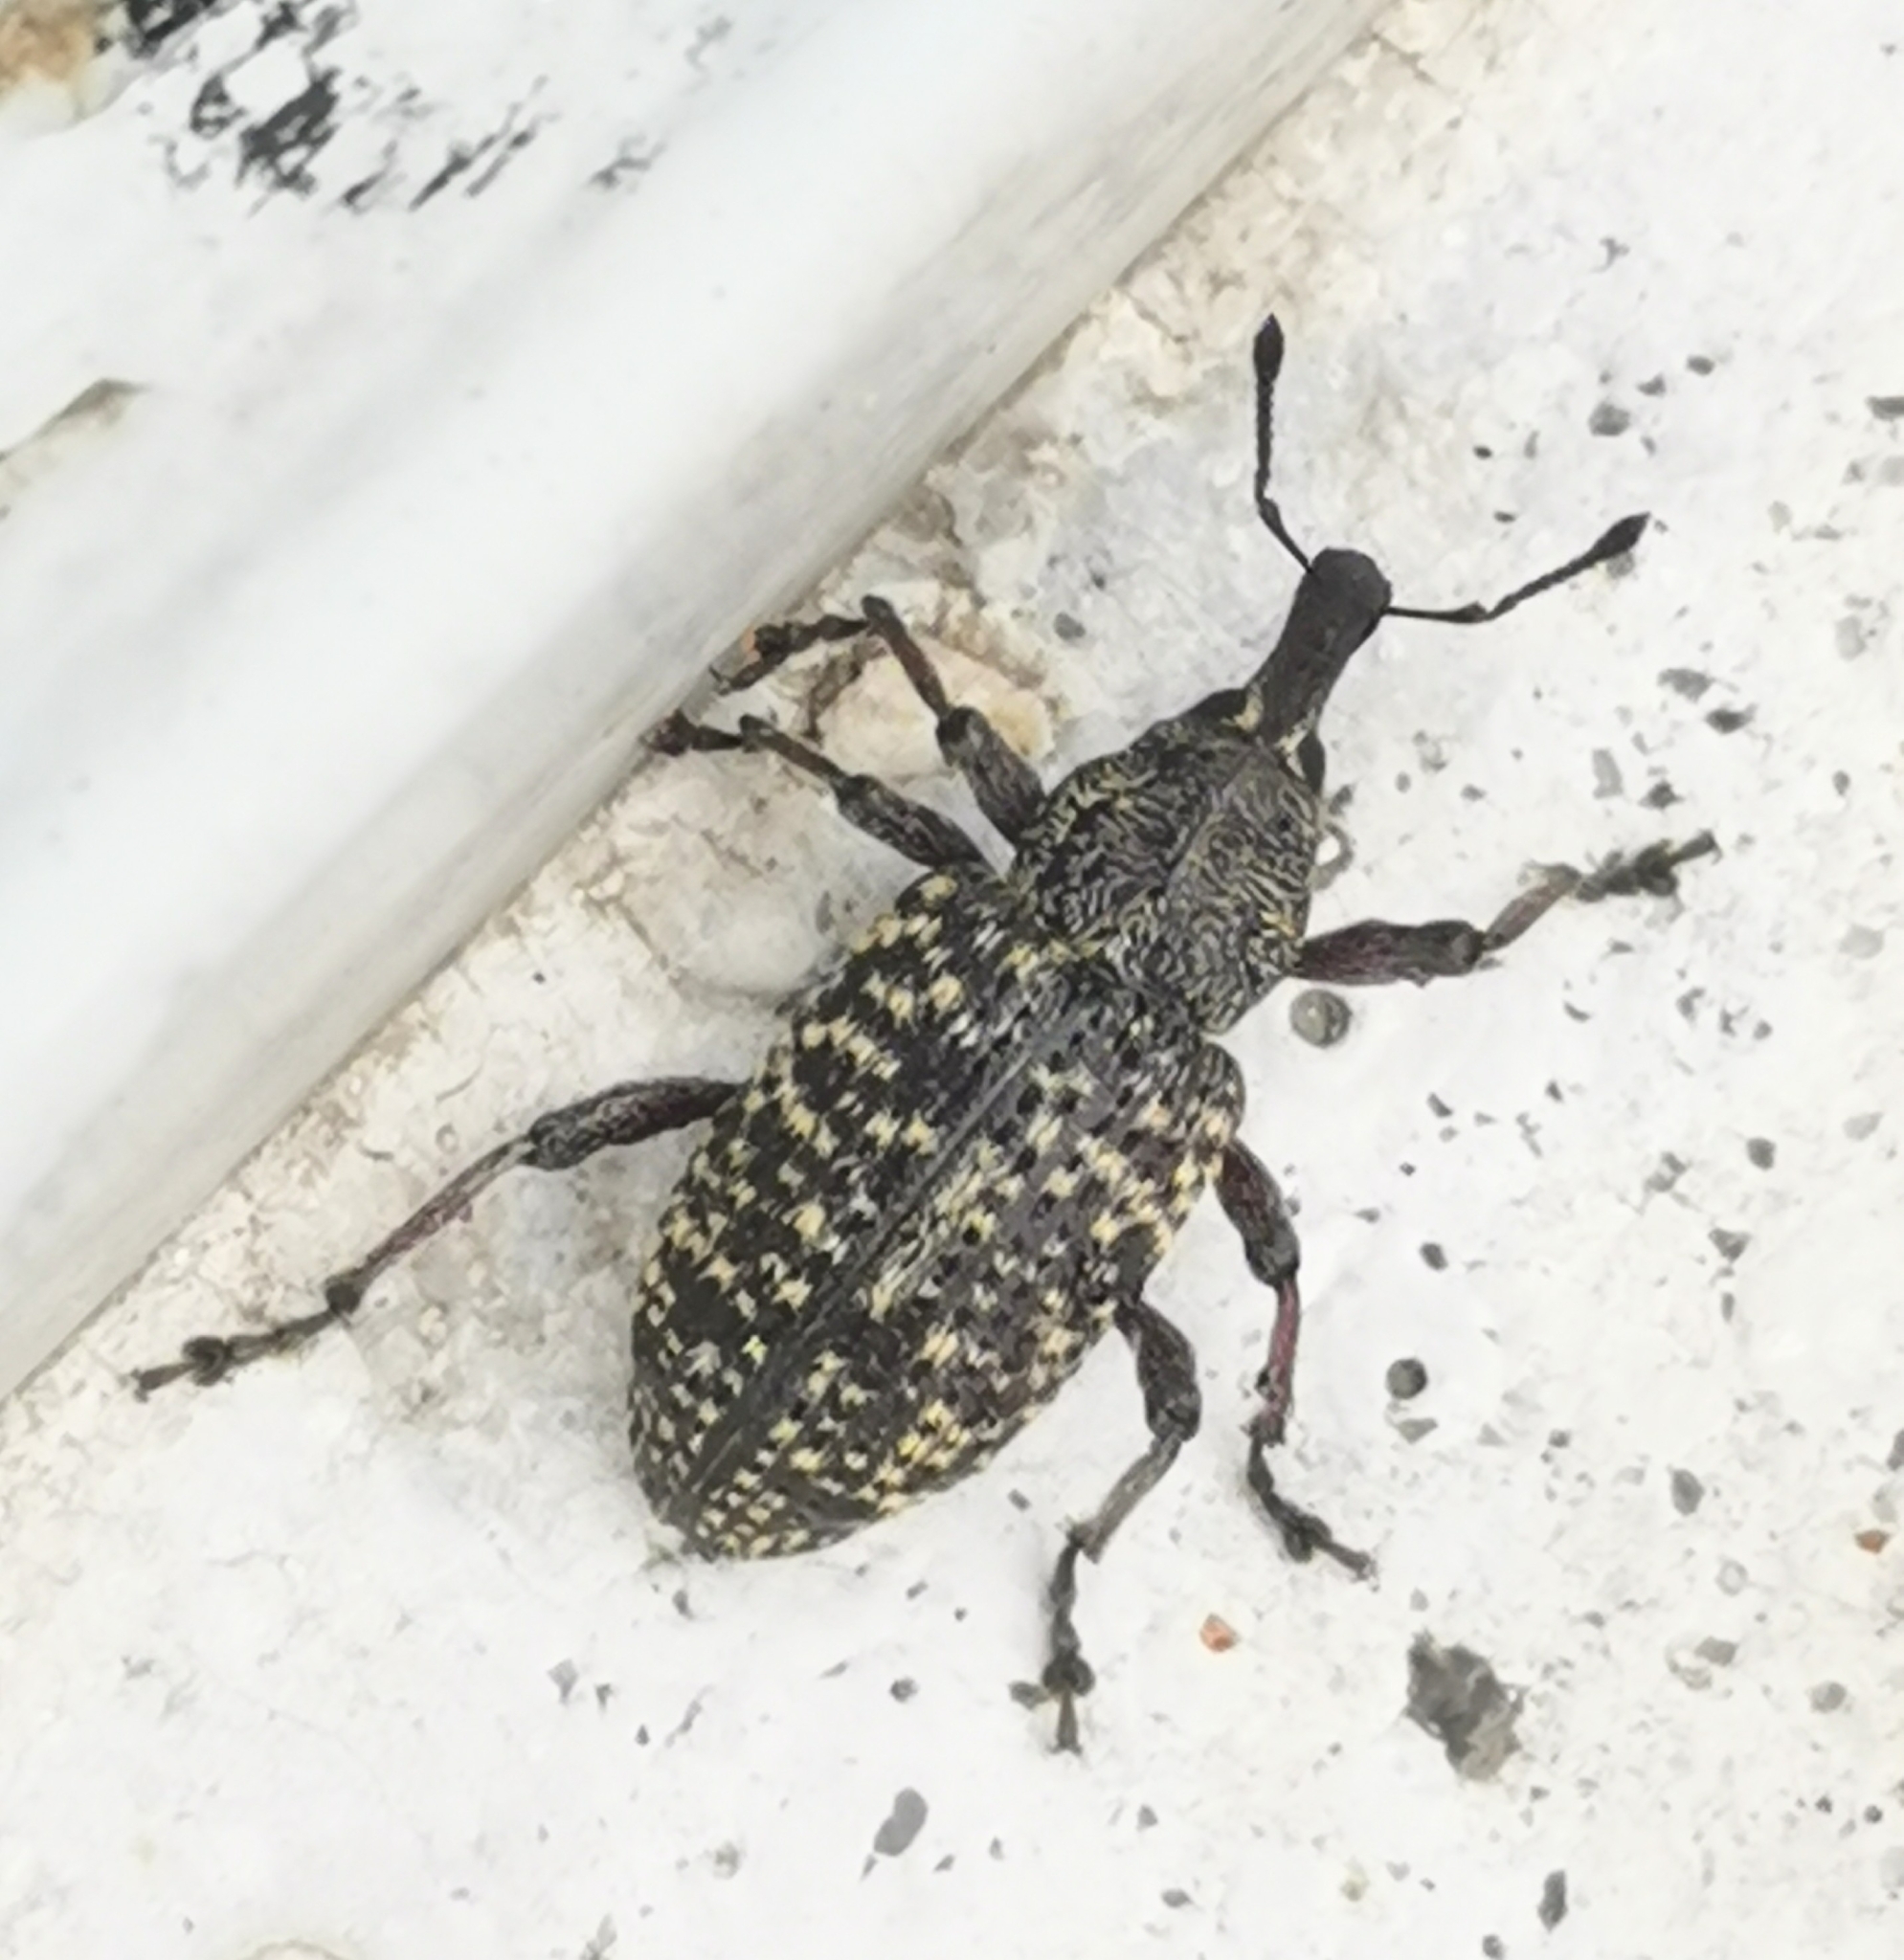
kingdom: Animalia
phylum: Arthropoda
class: Insecta
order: Coleoptera
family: Curculionidae
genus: Hylobius
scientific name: Hylobius excavatus
